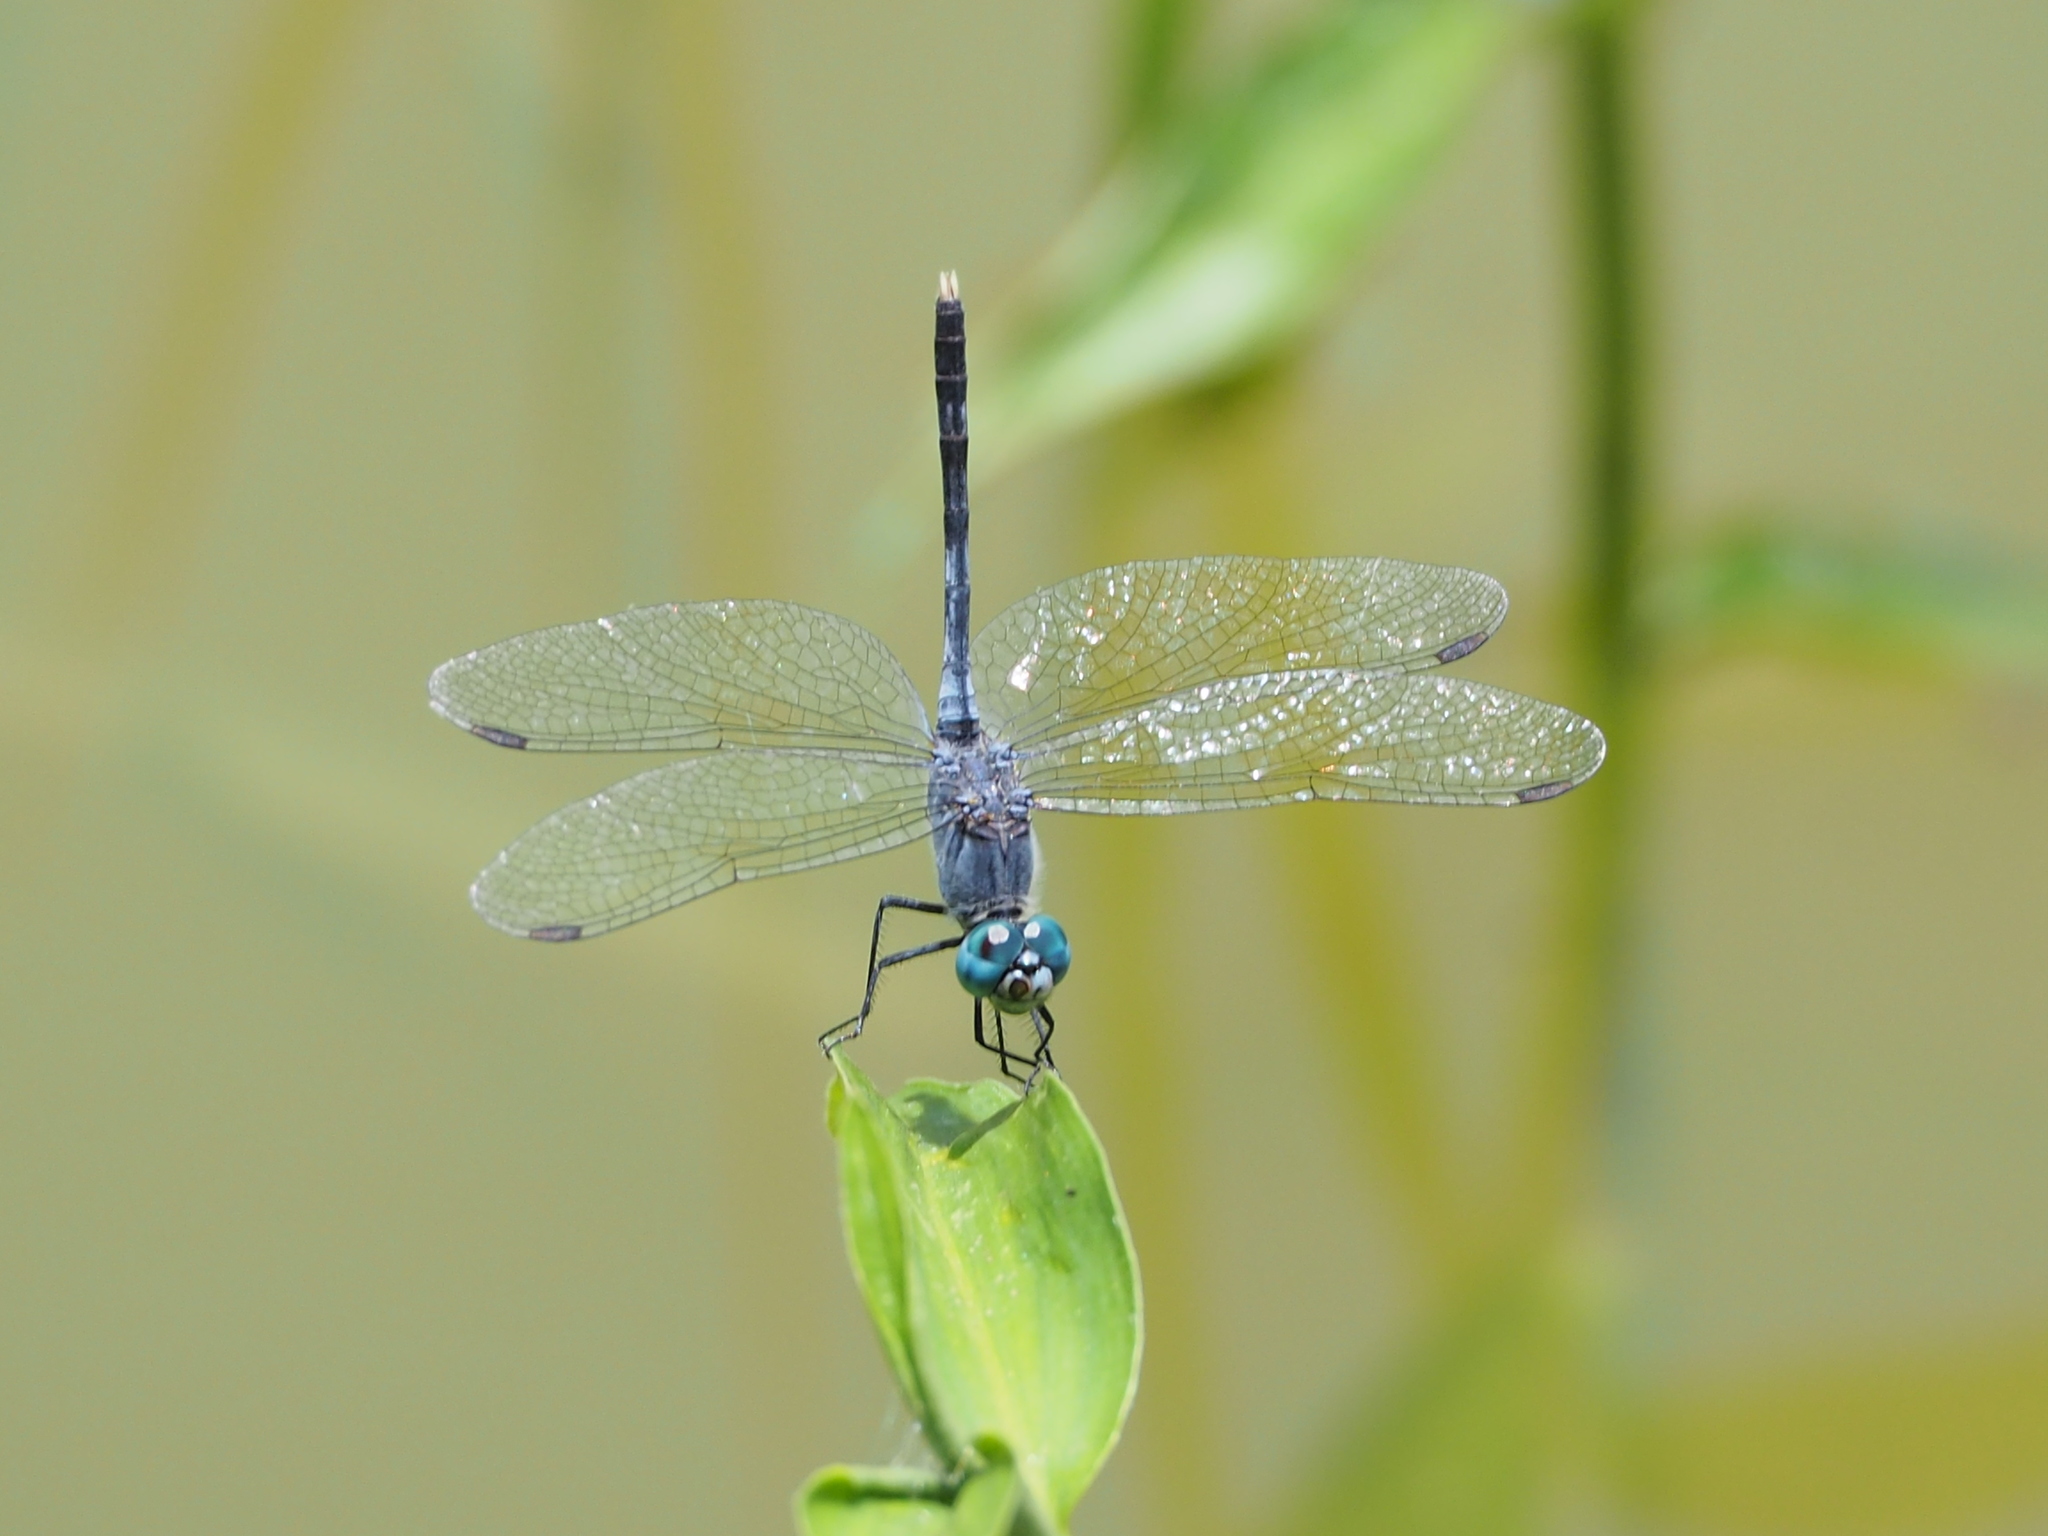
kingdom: Animalia
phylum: Arthropoda
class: Insecta
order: Odonata
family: Libellulidae
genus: Diplacodes
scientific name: Diplacodes trivialis
